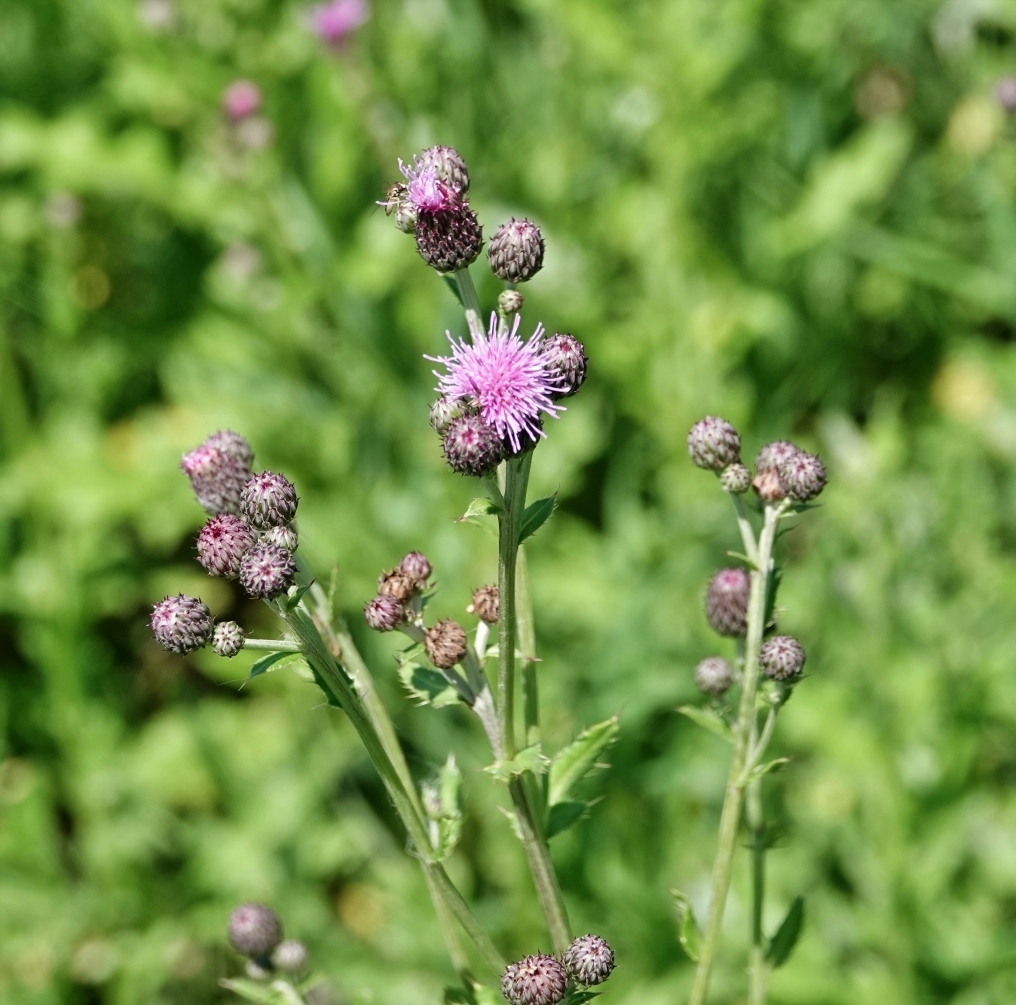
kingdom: Plantae
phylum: Tracheophyta
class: Magnoliopsida
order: Asterales
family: Asteraceae
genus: Cirsium
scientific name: Cirsium arvense
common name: Creeping thistle
